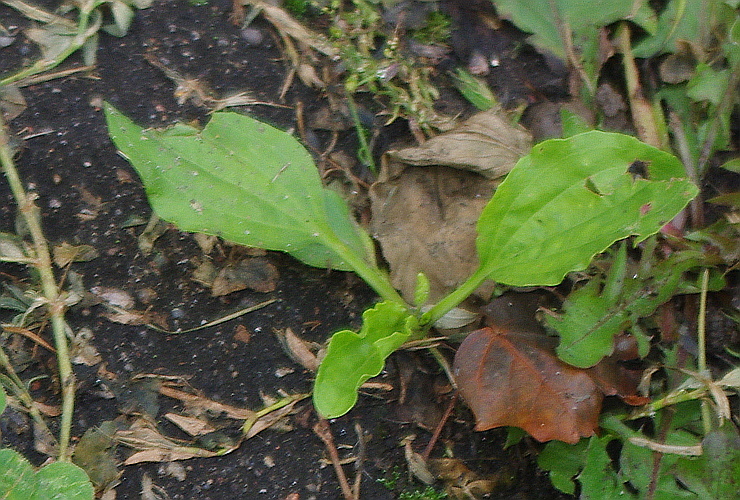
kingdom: Plantae
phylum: Tracheophyta
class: Magnoliopsida
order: Lamiales
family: Plantaginaceae
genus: Plantago
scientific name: Plantago major
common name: Common plantain
